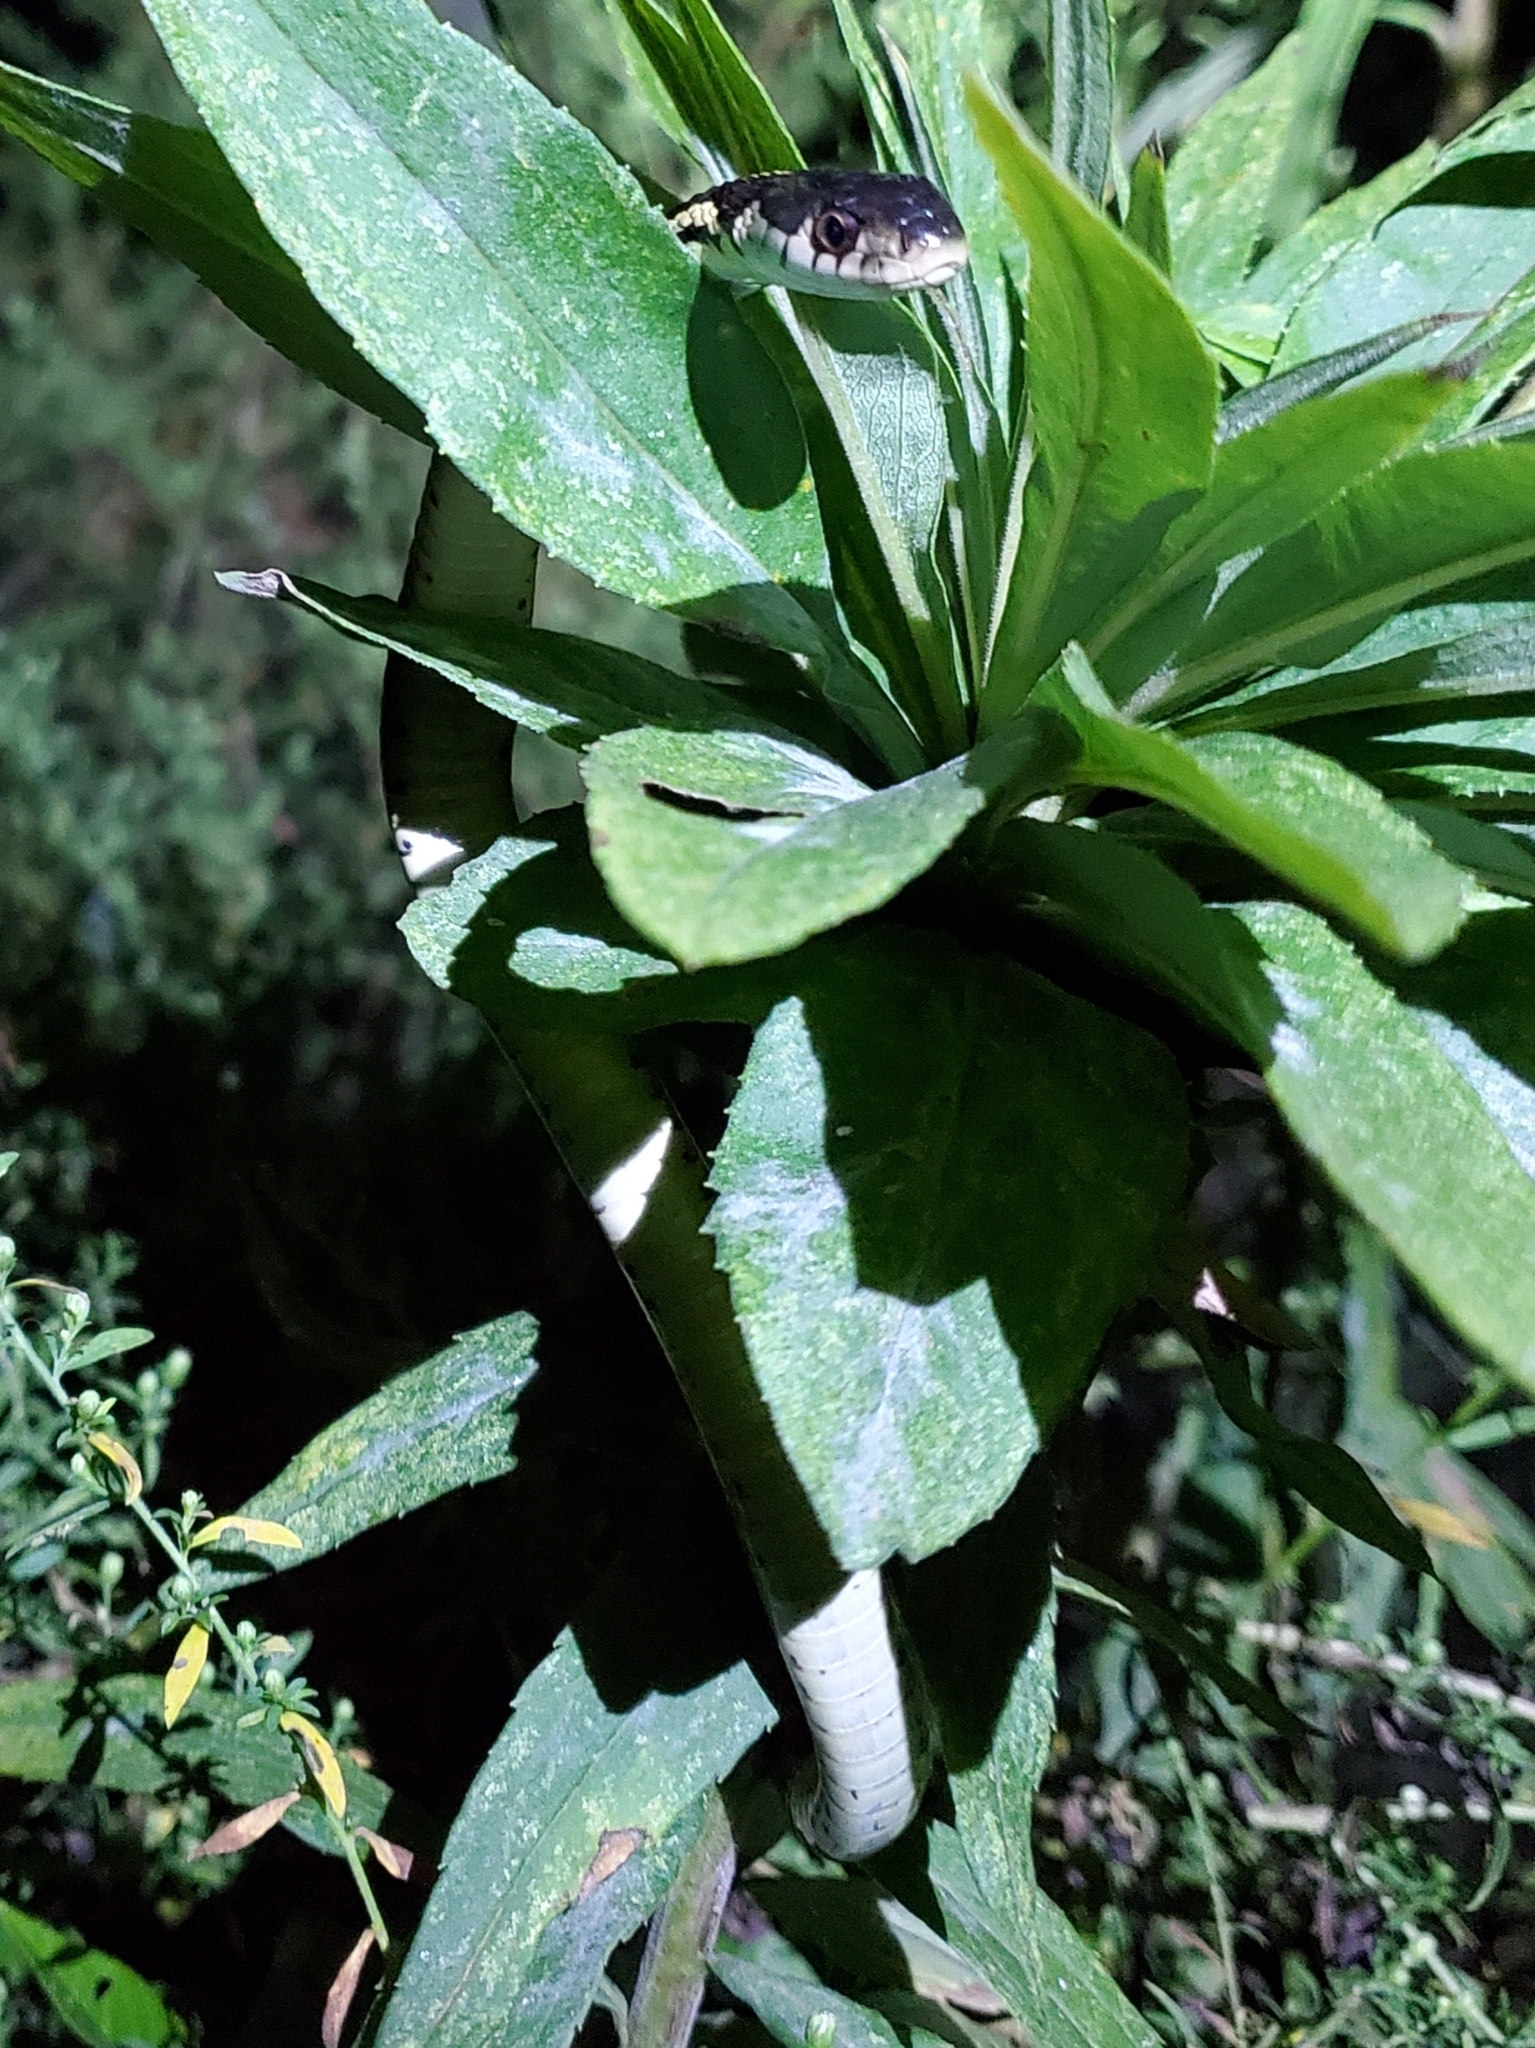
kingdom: Animalia
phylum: Chordata
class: Squamata
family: Colubridae
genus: Thamnophis
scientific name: Thamnophis sirtalis
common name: Common garter snake
